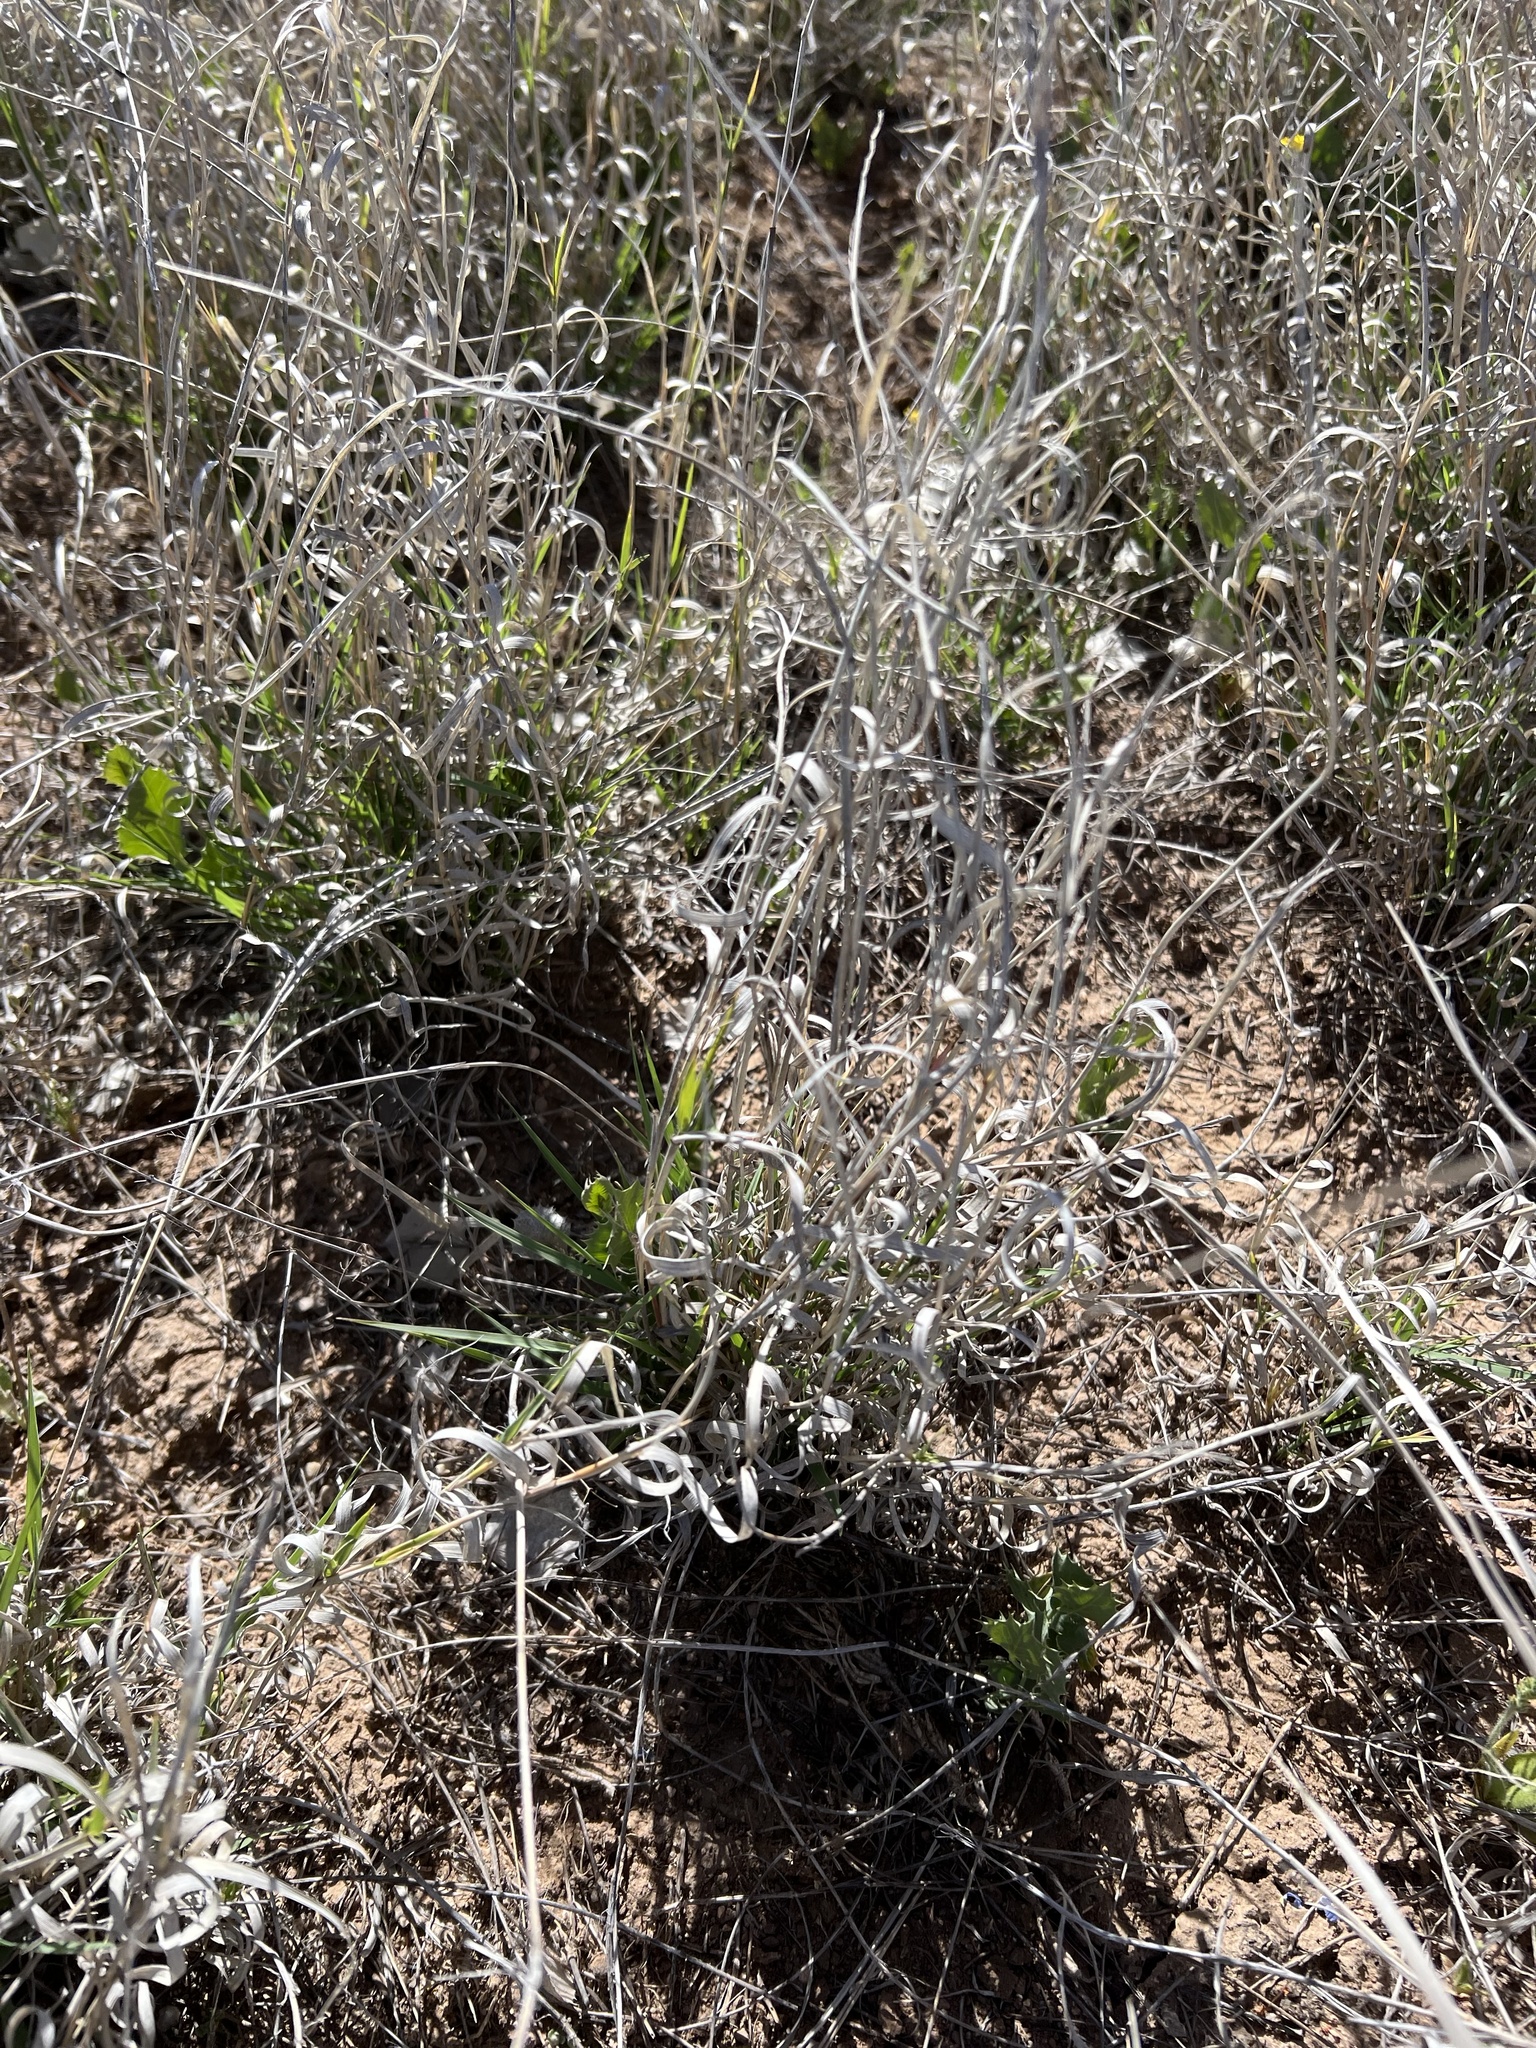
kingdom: Plantae
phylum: Tracheophyta
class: Liliopsida
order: Poales
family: Poaceae
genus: Hilaria
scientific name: Hilaria mutica
